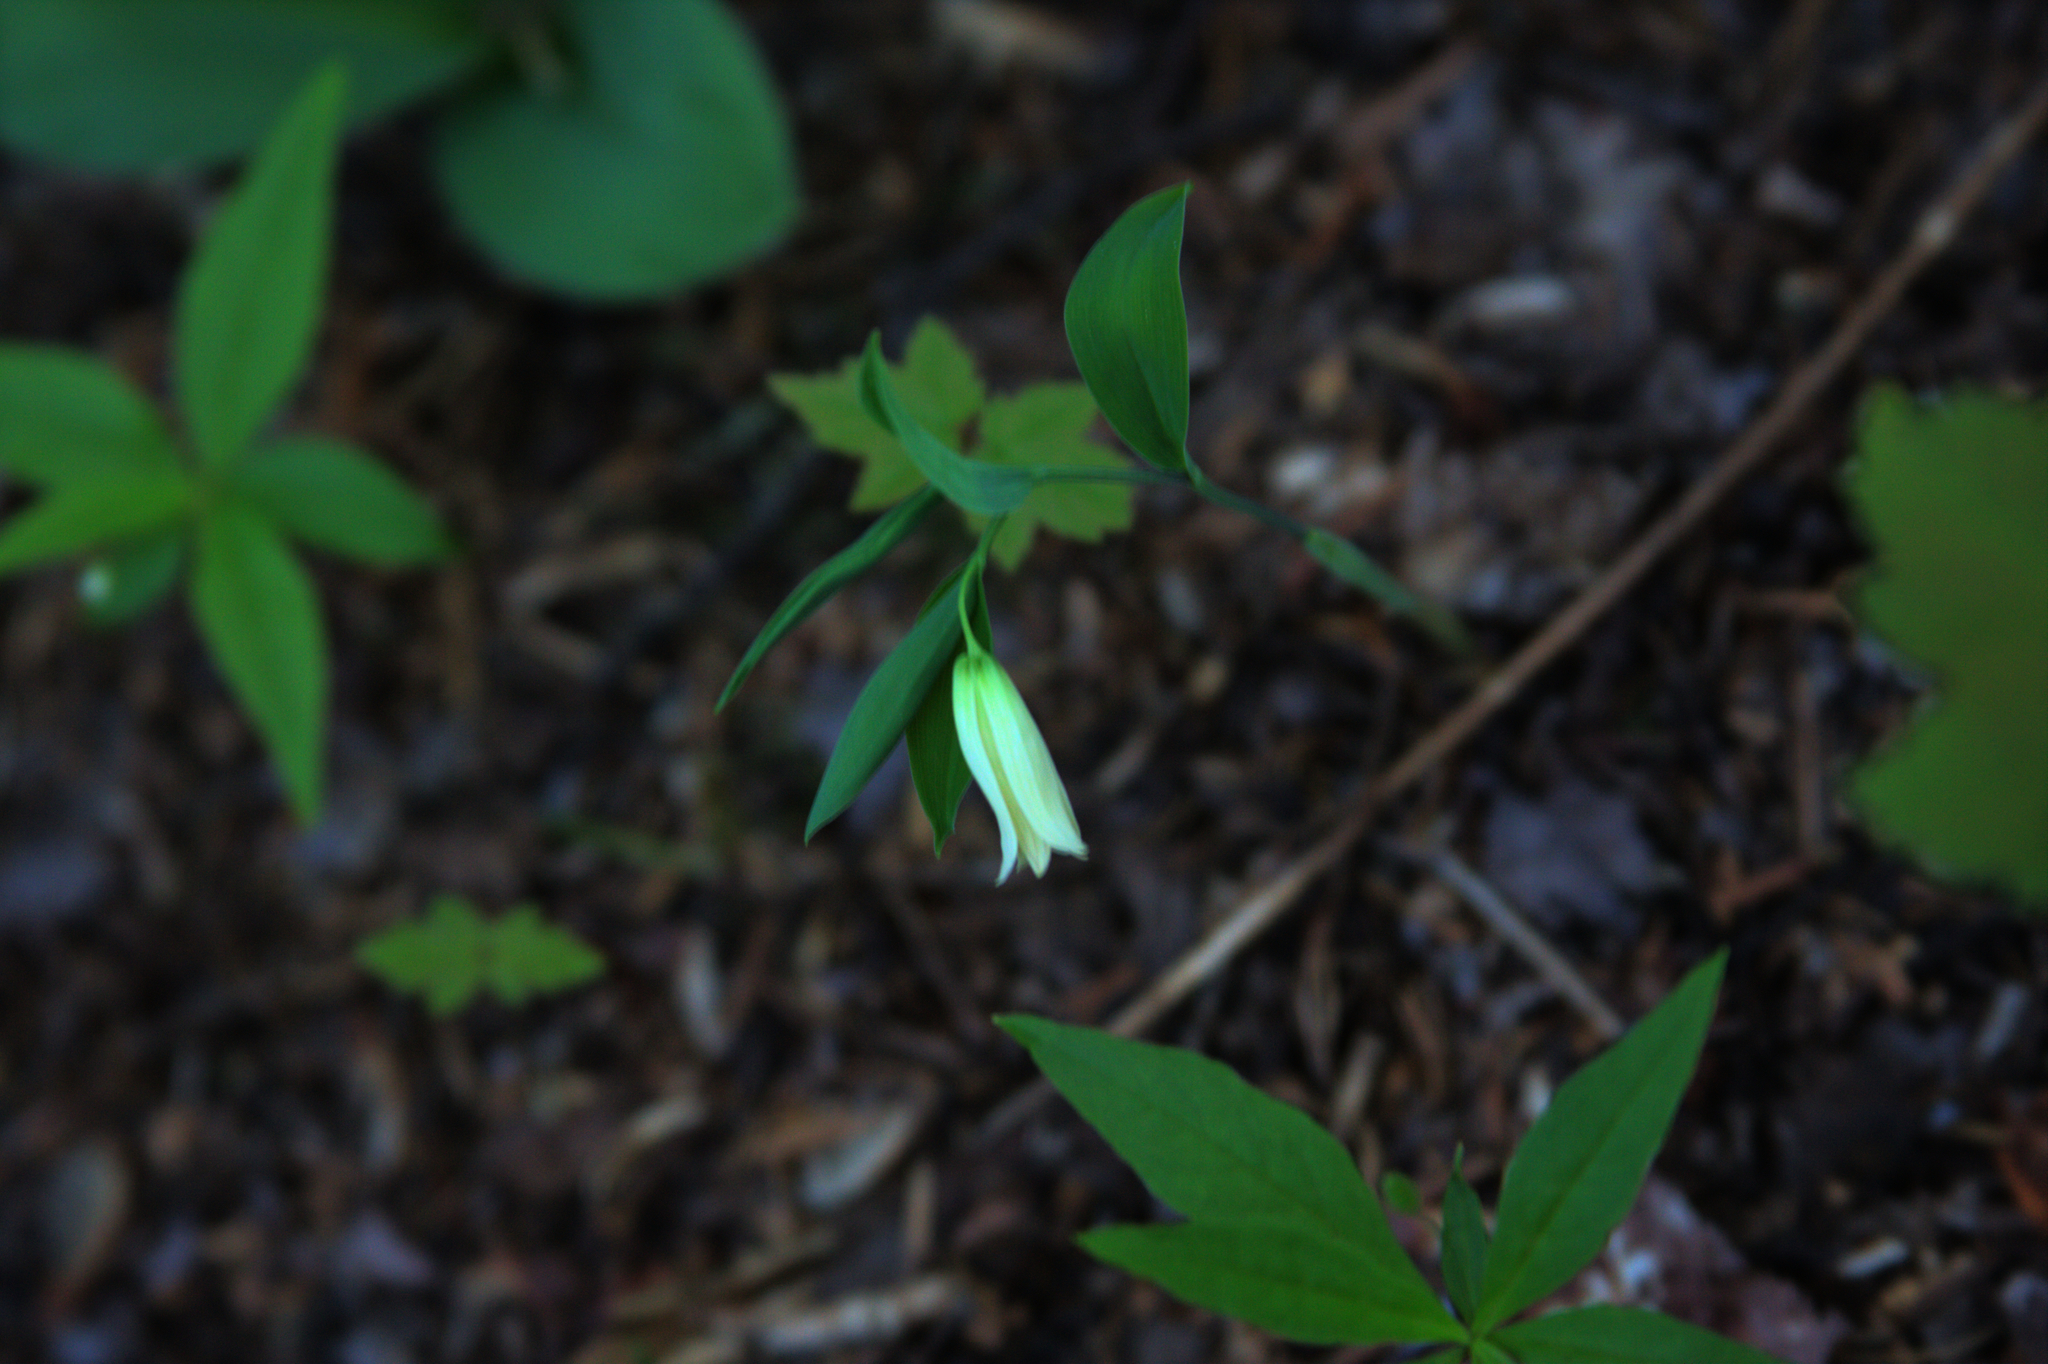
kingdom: Plantae
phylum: Tracheophyta
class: Liliopsida
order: Liliales
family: Colchicaceae
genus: Uvularia
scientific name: Uvularia sessilifolia
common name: Straw-lily
